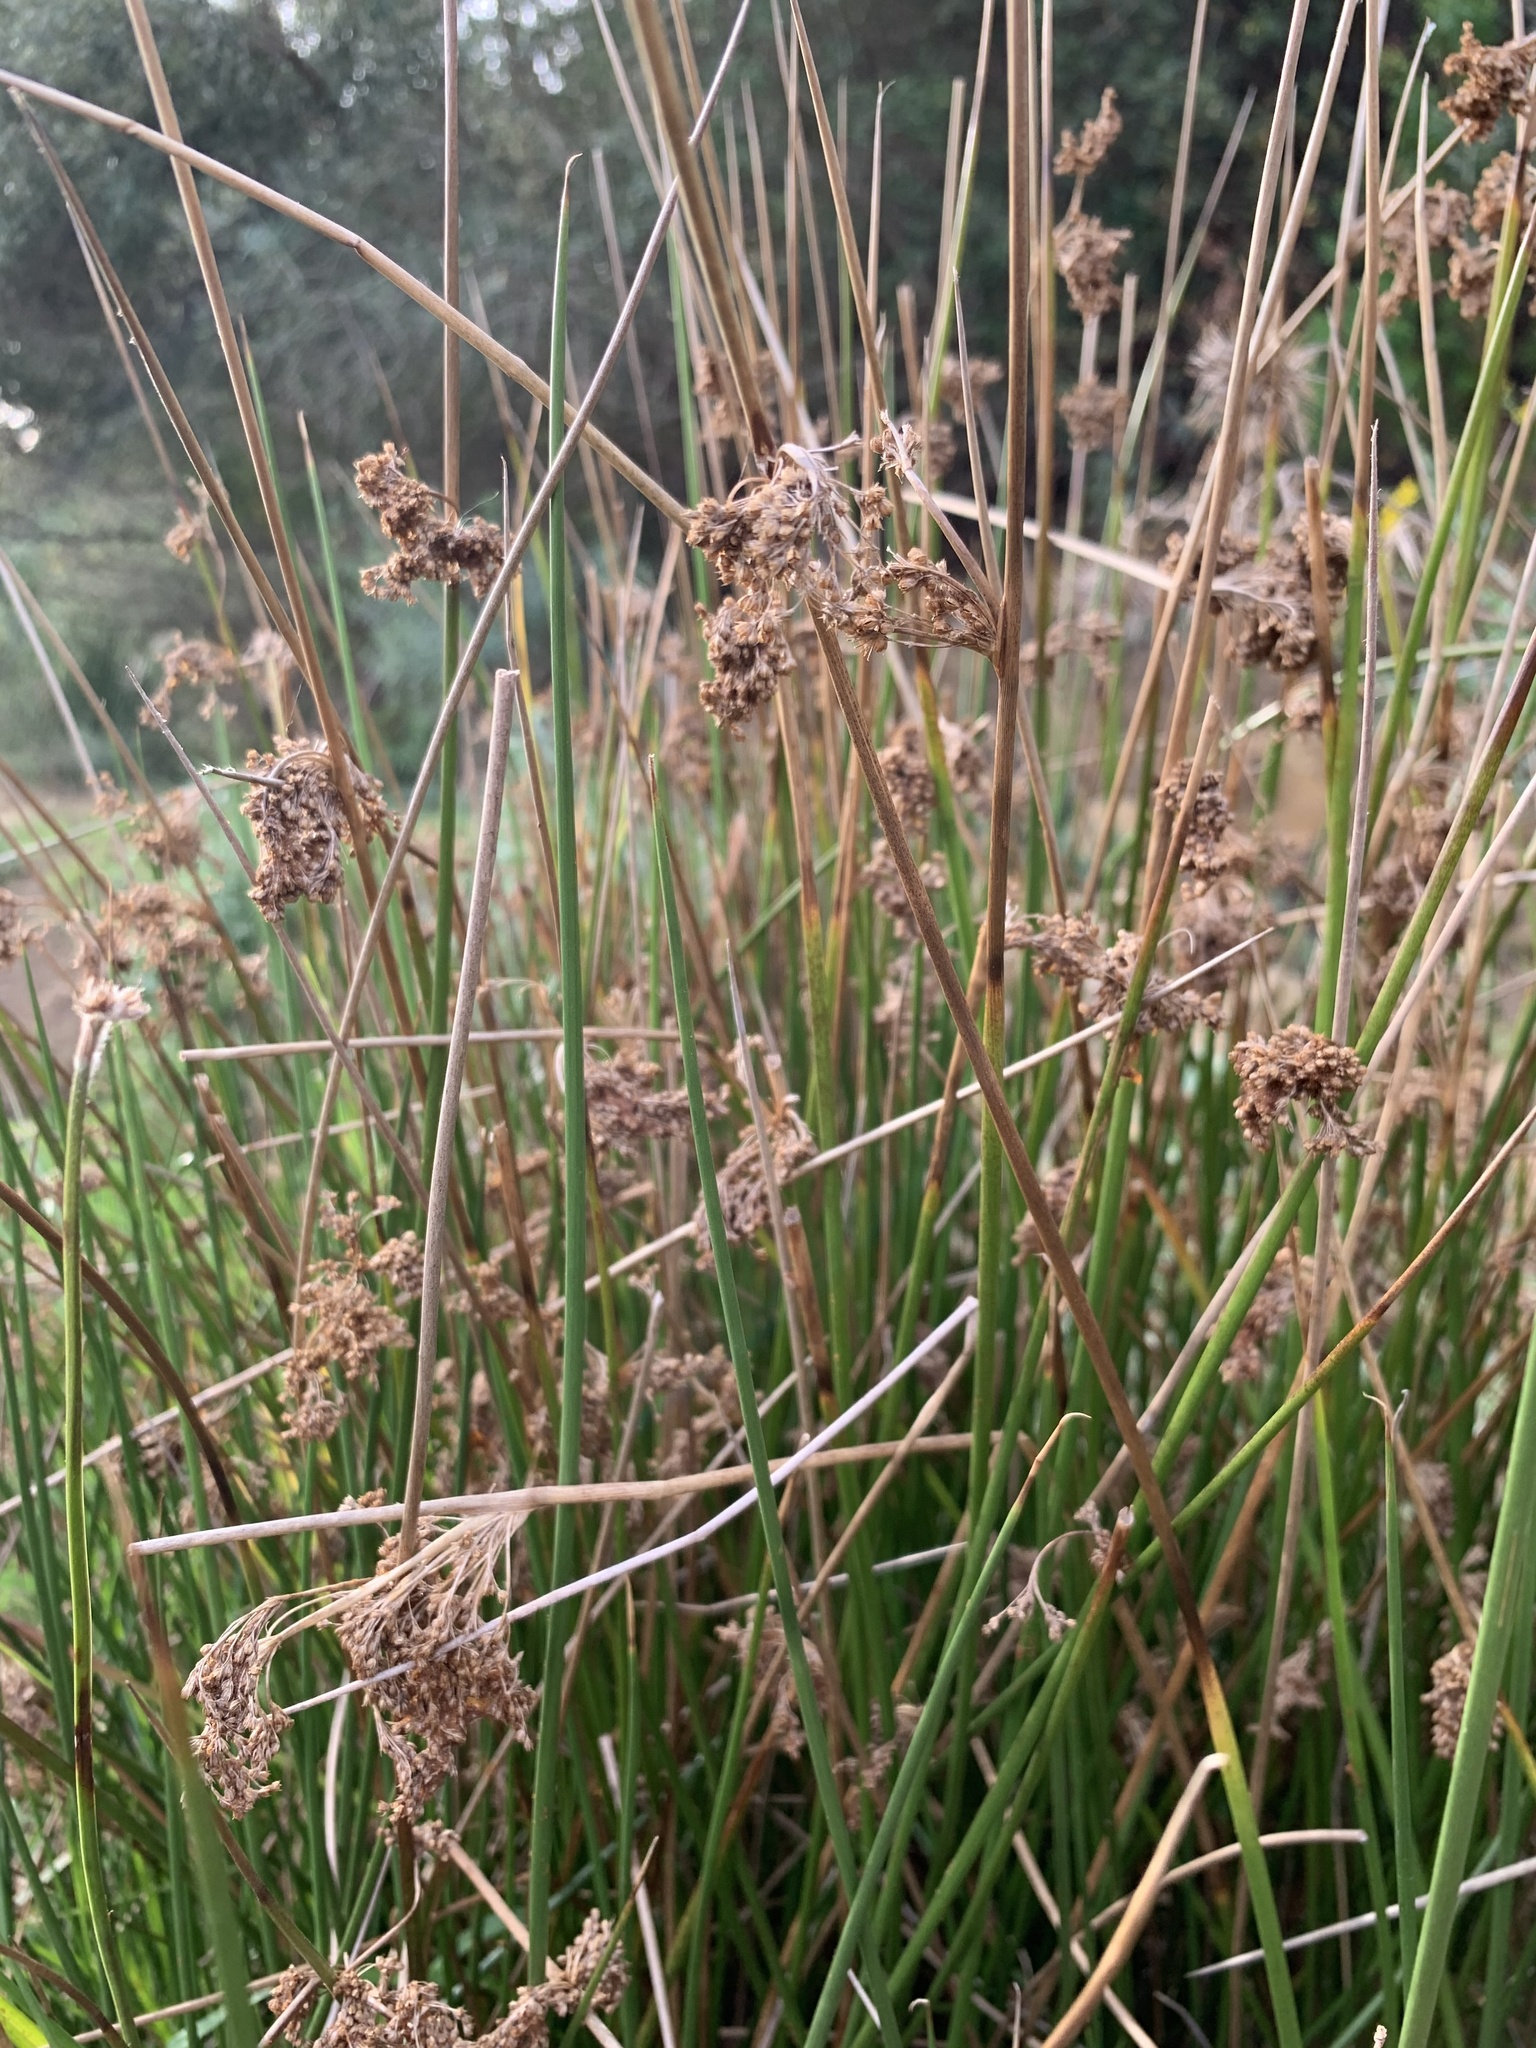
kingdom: Plantae
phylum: Tracheophyta
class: Liliopsida
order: Poales
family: Juncaceae
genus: Juncus
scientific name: Juncus effusus
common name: Soft rush
